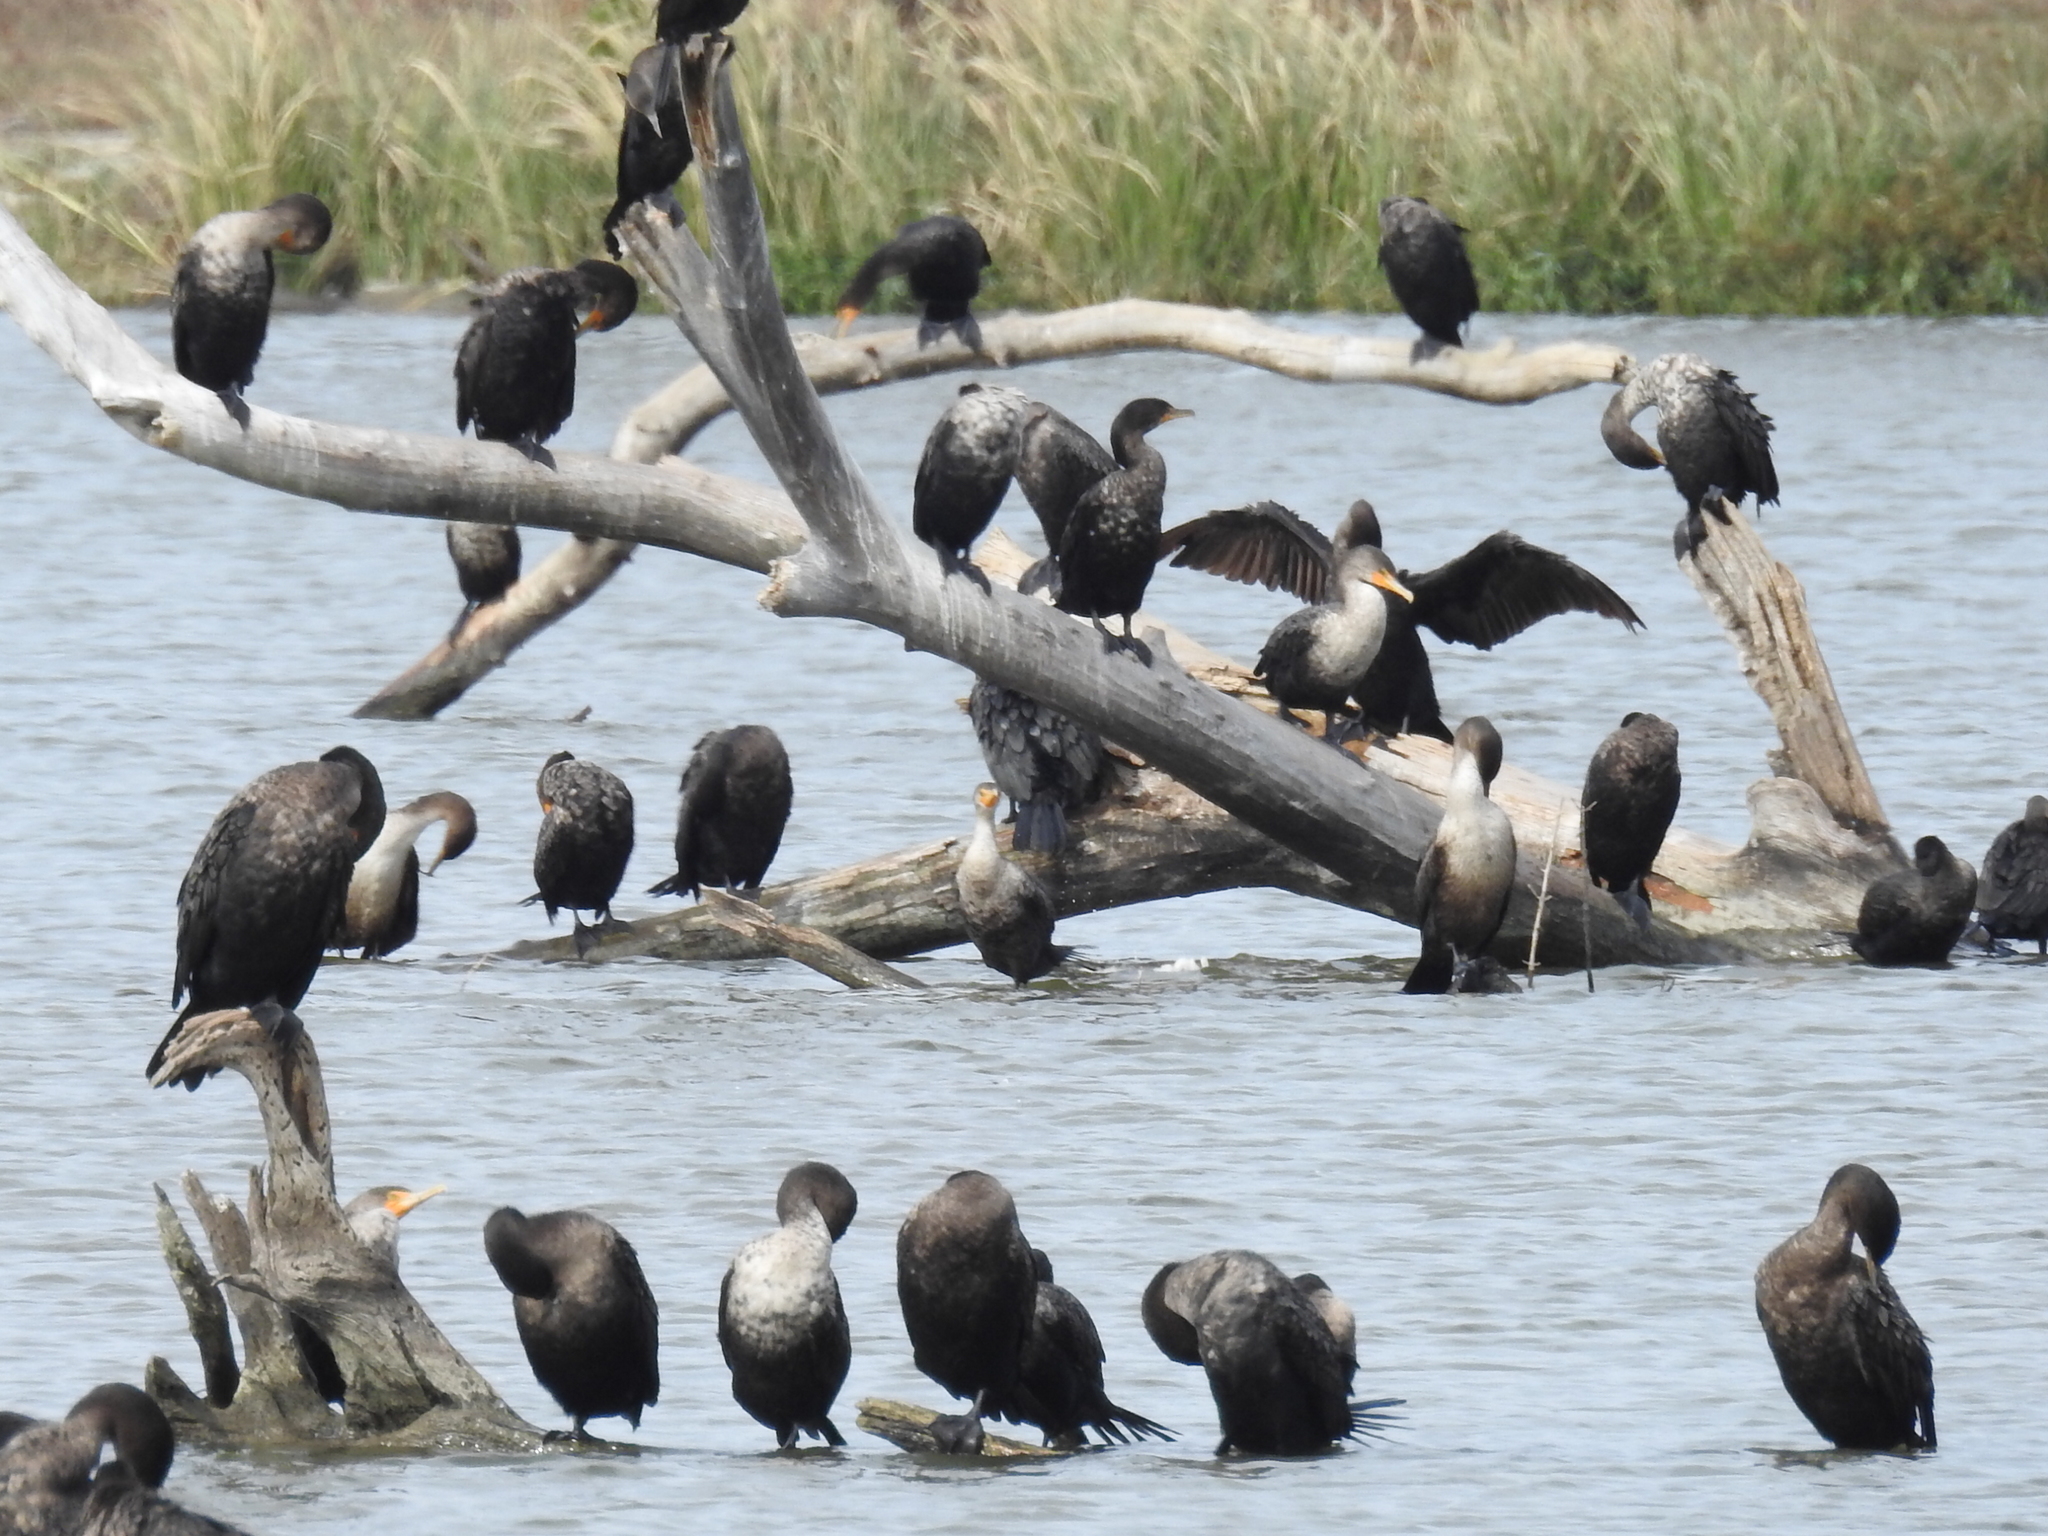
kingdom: Animalia
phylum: Chordata
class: Aves
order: Suliformes
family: Phalacrocoracidae
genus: Phalacrocorax
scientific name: Phalacrocorax auritus
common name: Double-crested cormorant
